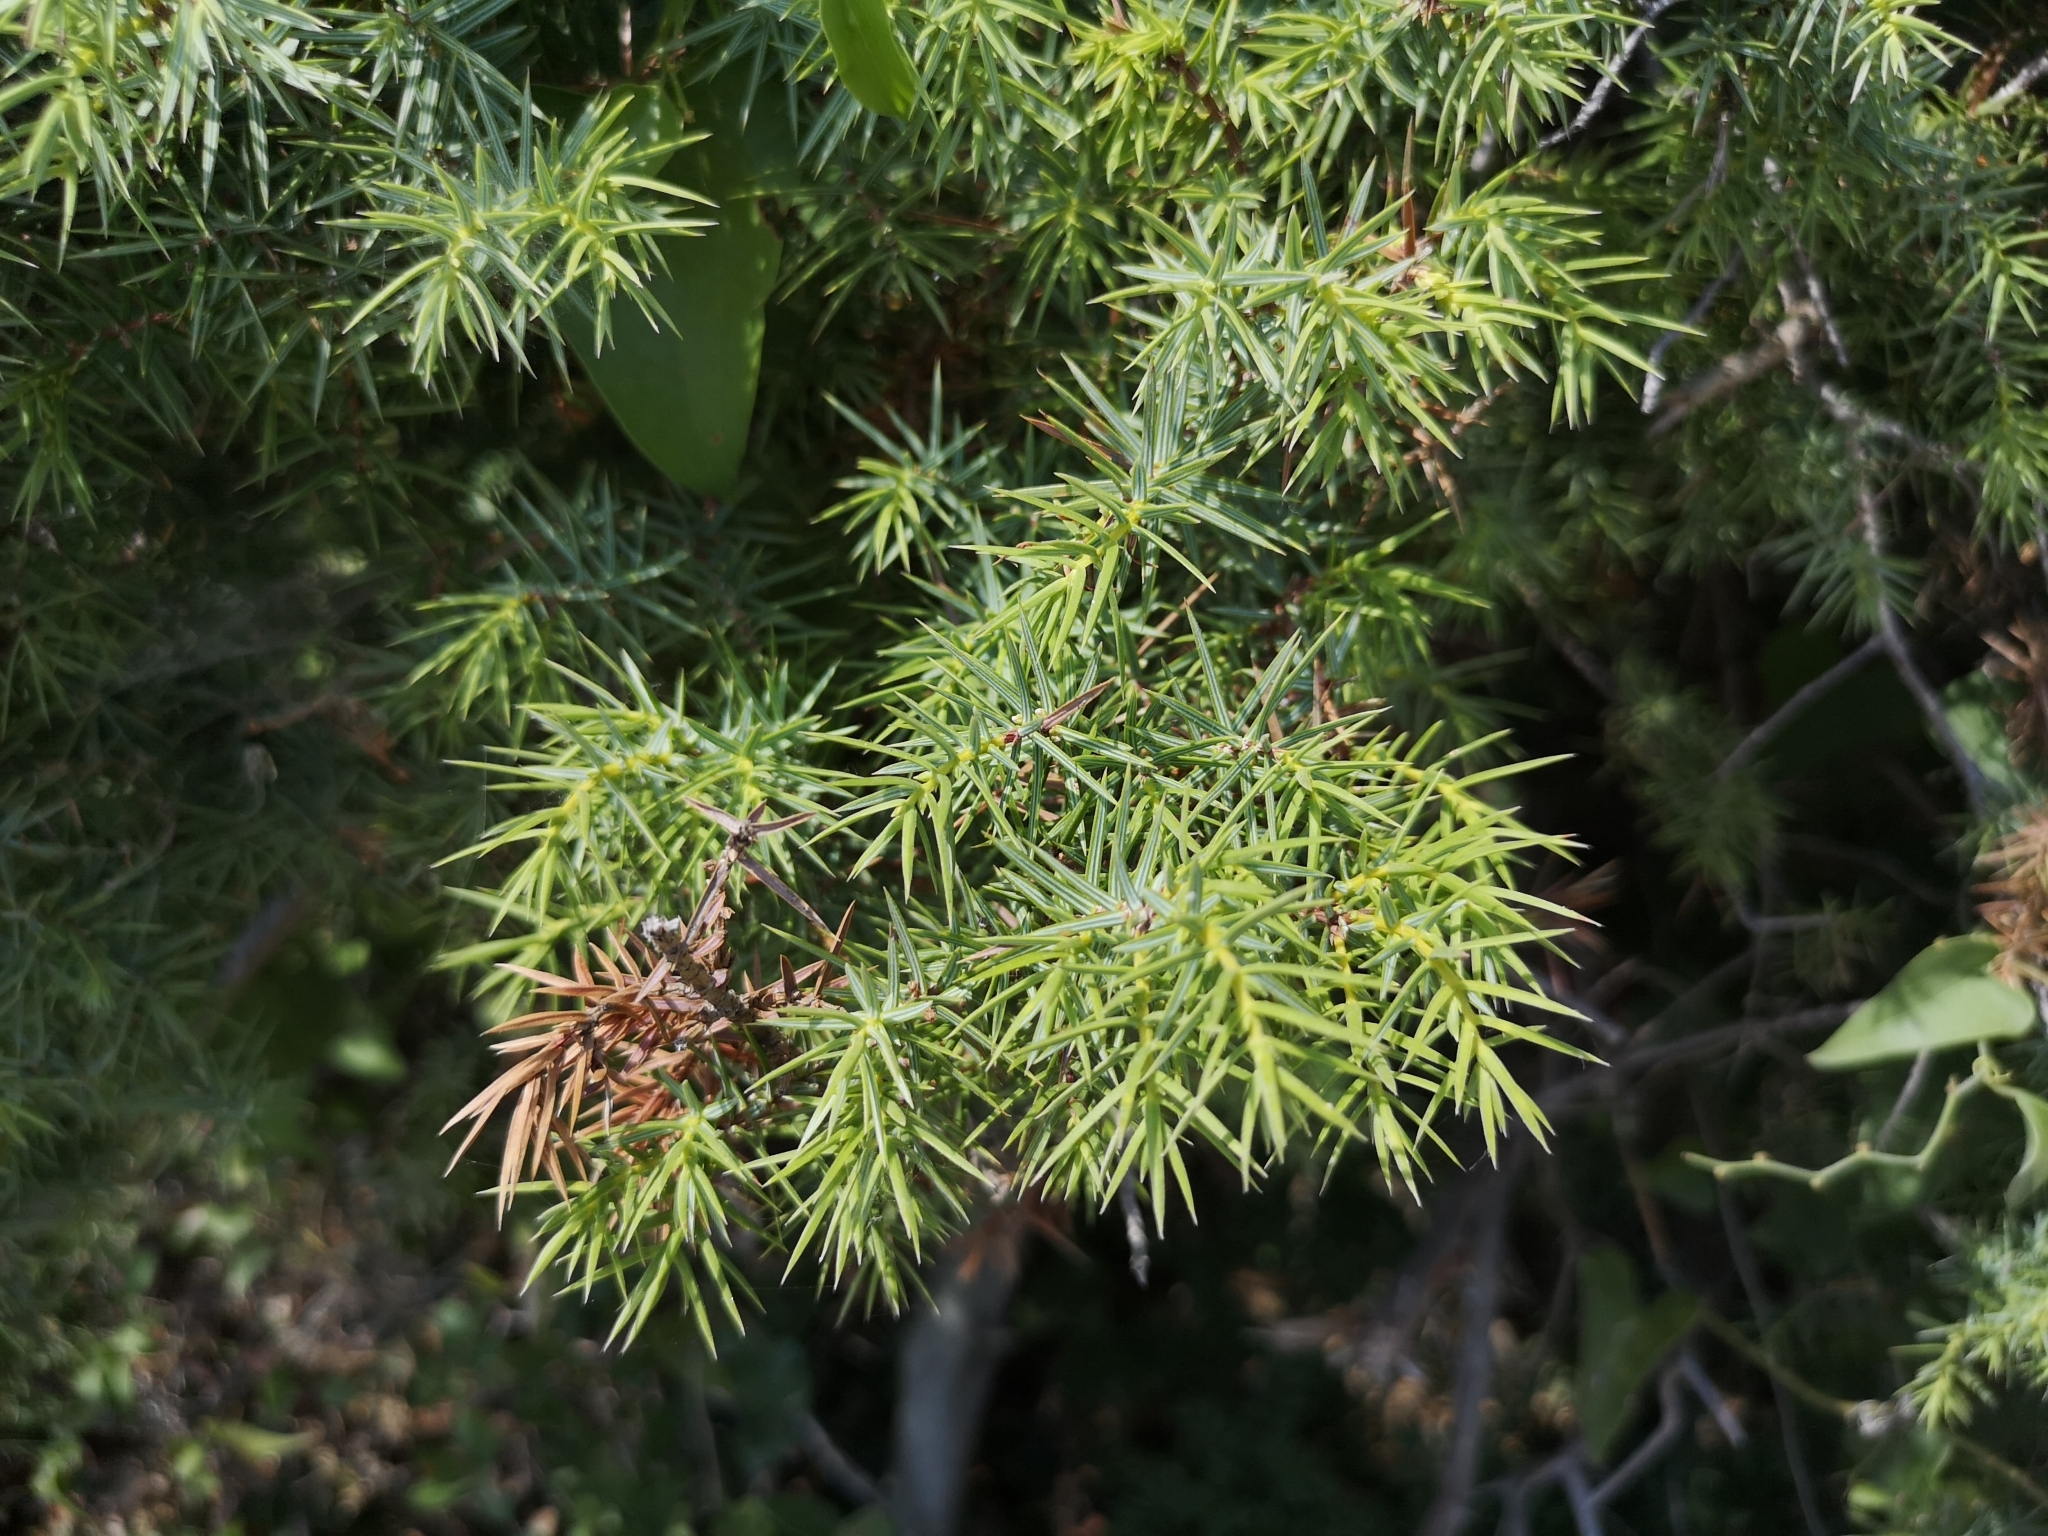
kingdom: Plantae
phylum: Tracheophyta
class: Pinopsida
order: Pinales
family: Cupressaceae
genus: Juniperus
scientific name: Juniperus oxycedrus
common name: Prickly juniper
